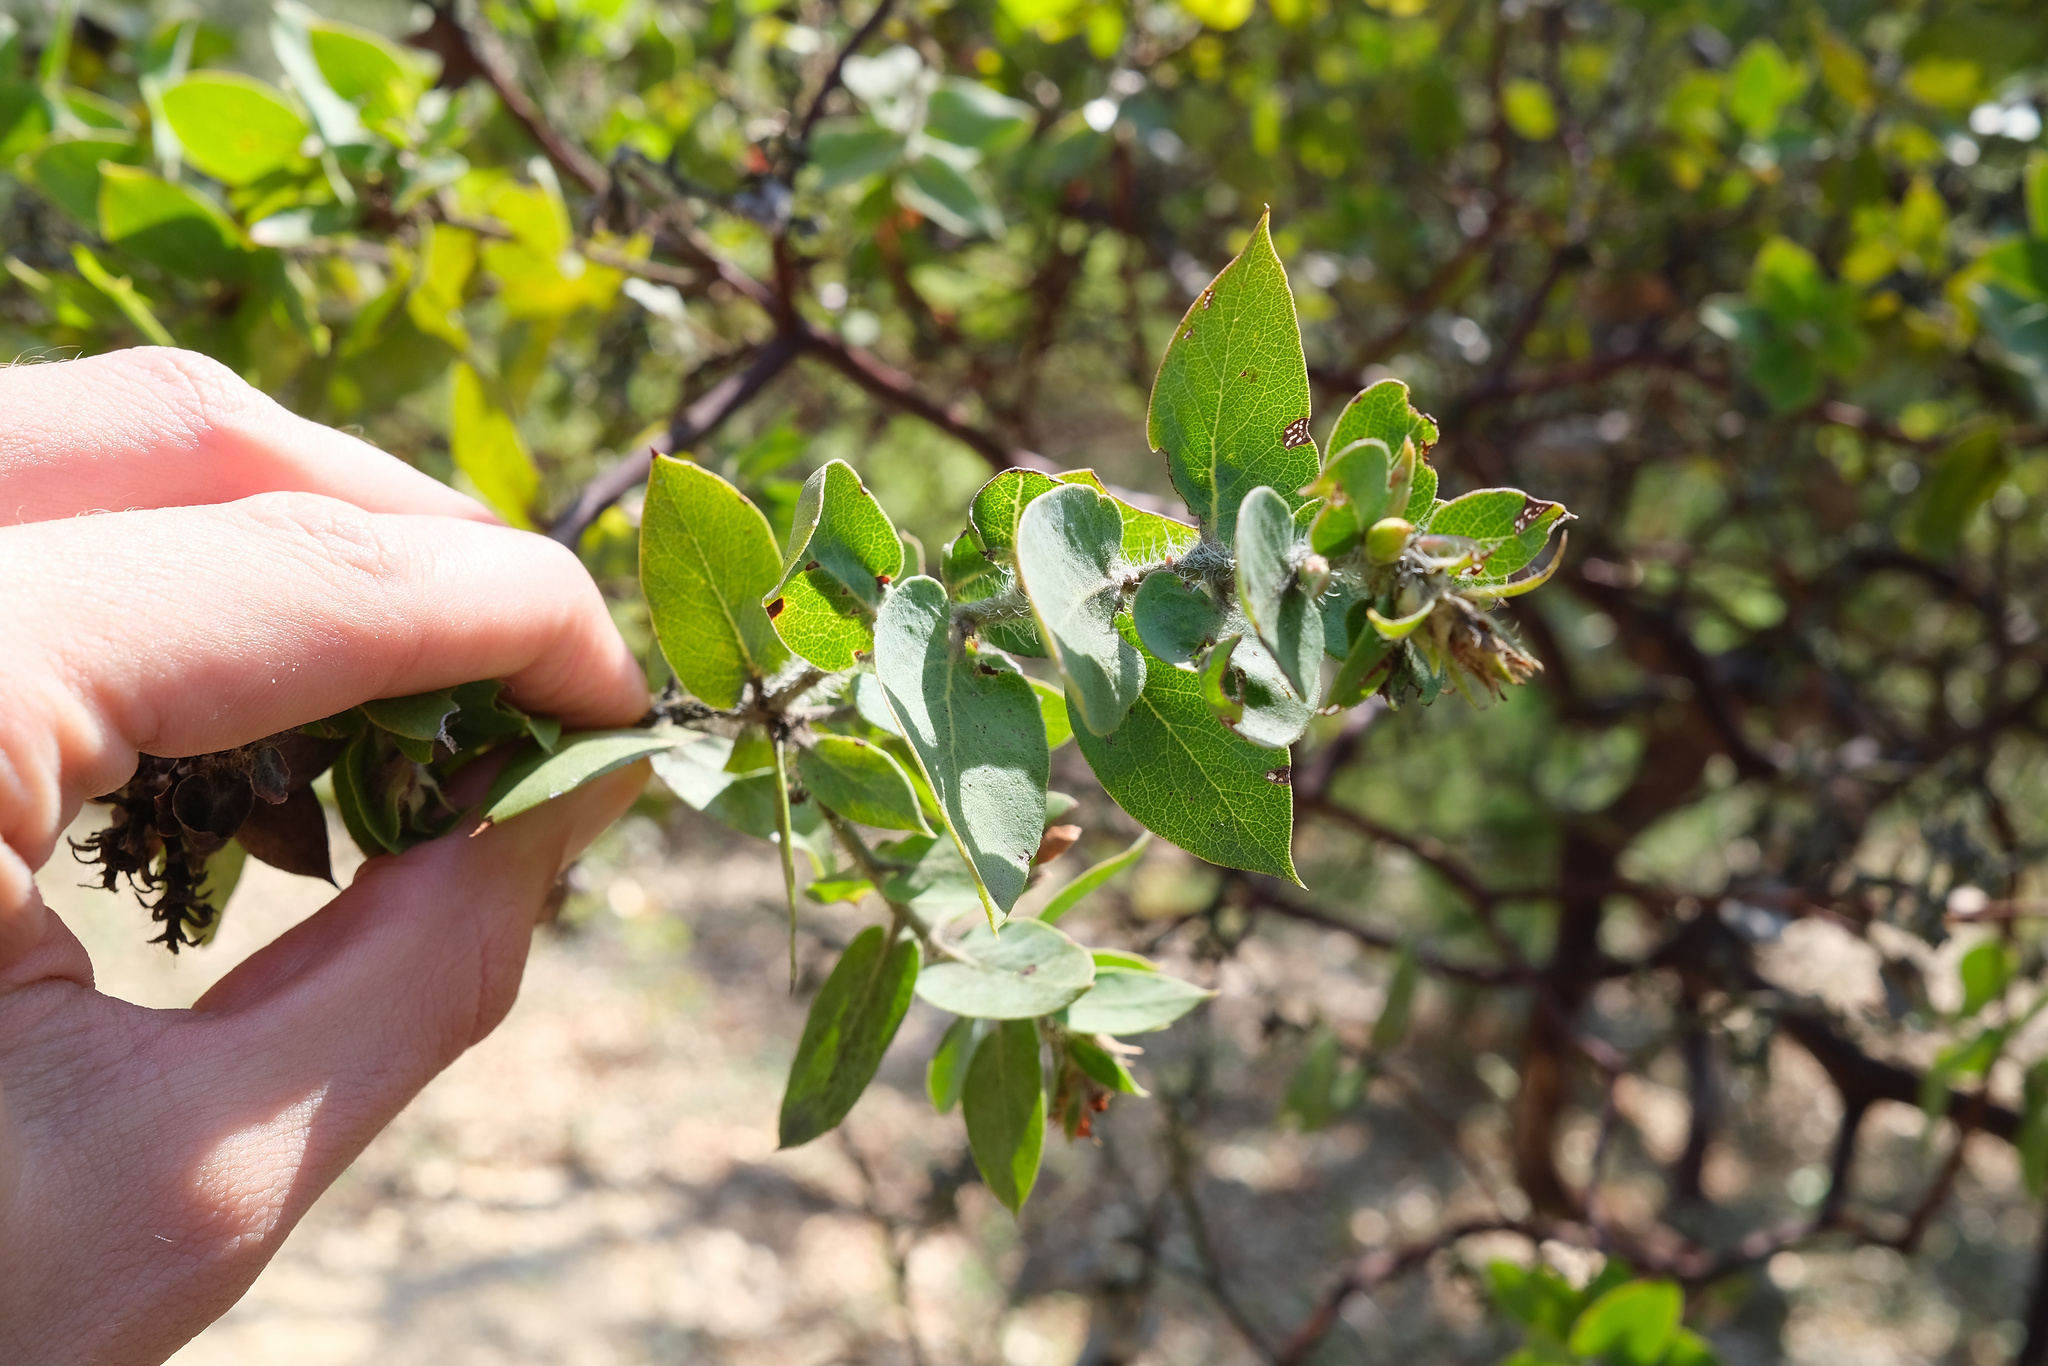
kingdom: Plantae
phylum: Tracheophyta
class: Magnoliopsida
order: Ericales
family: Ericaceae
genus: Arctostaphylos
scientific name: Arctostaphylos pechoensis
